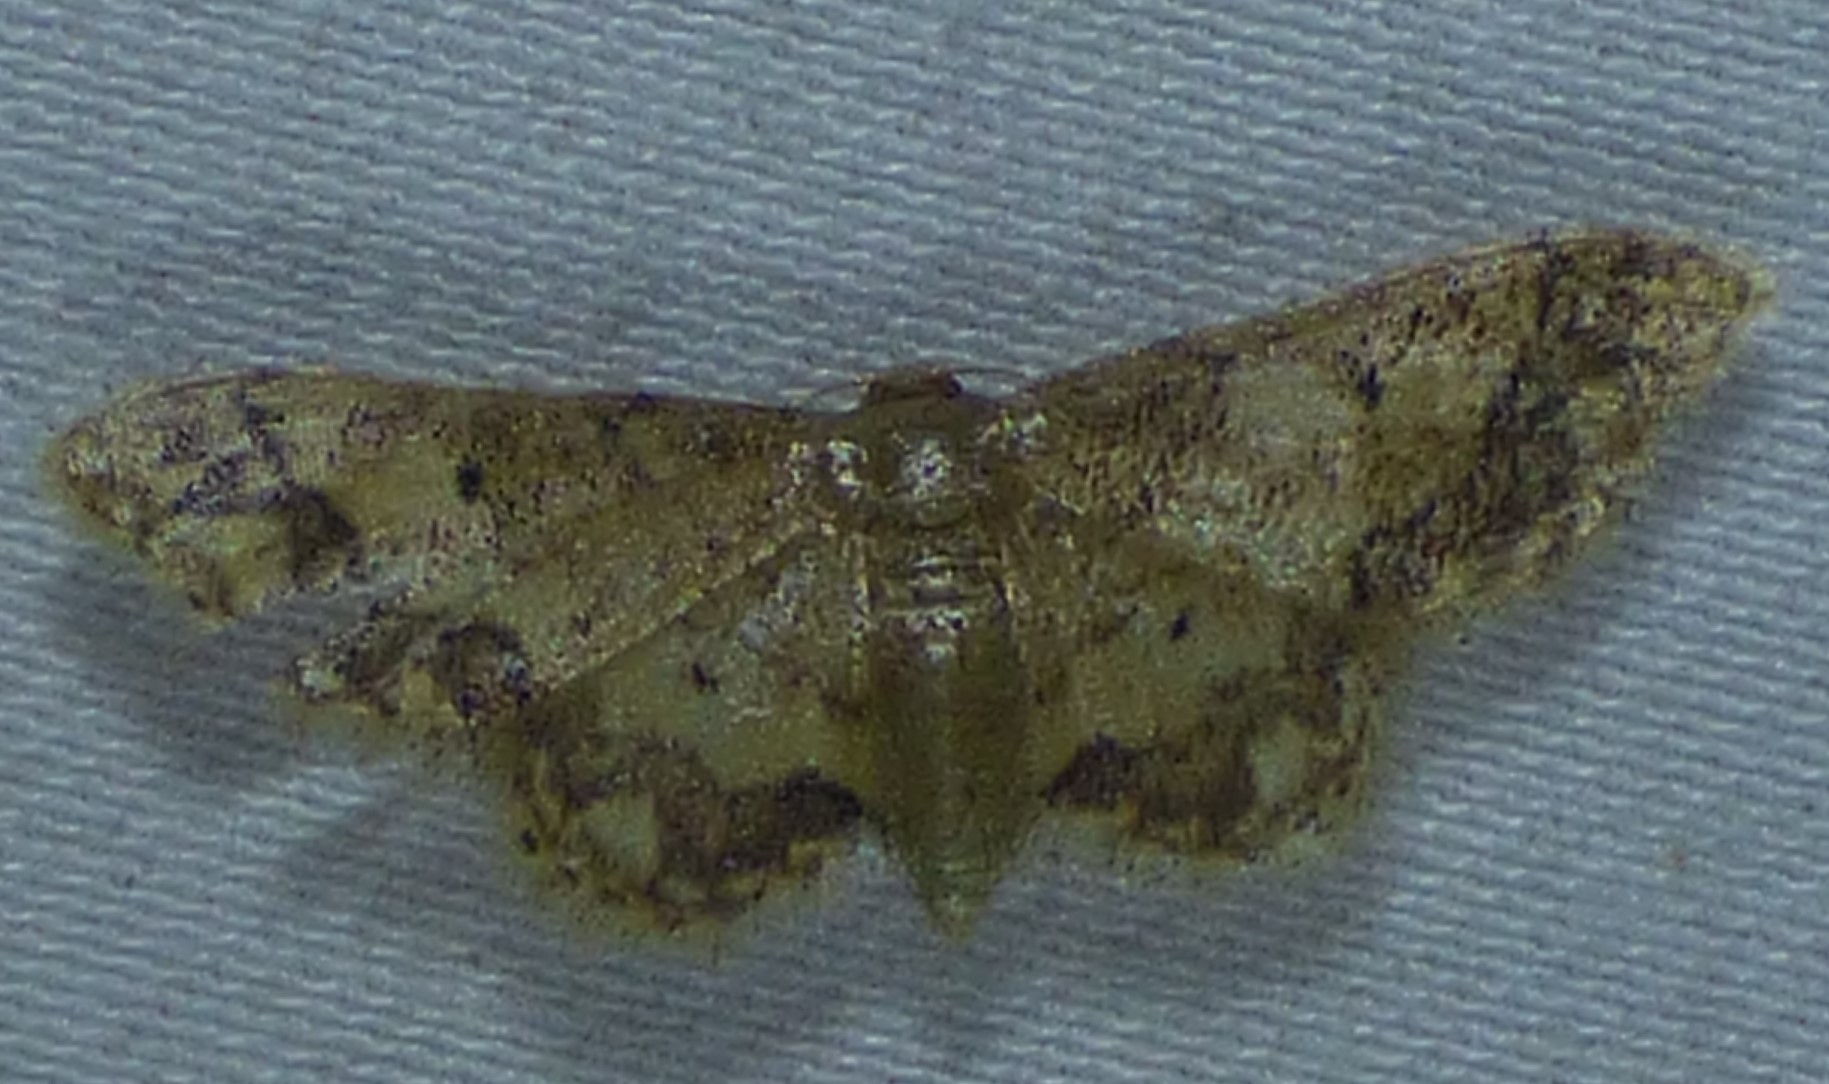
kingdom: Animalia
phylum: Arthropoda
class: Insecta
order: Lepidoptera
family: Geometridae
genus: Idaea
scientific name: Idaea celtima
